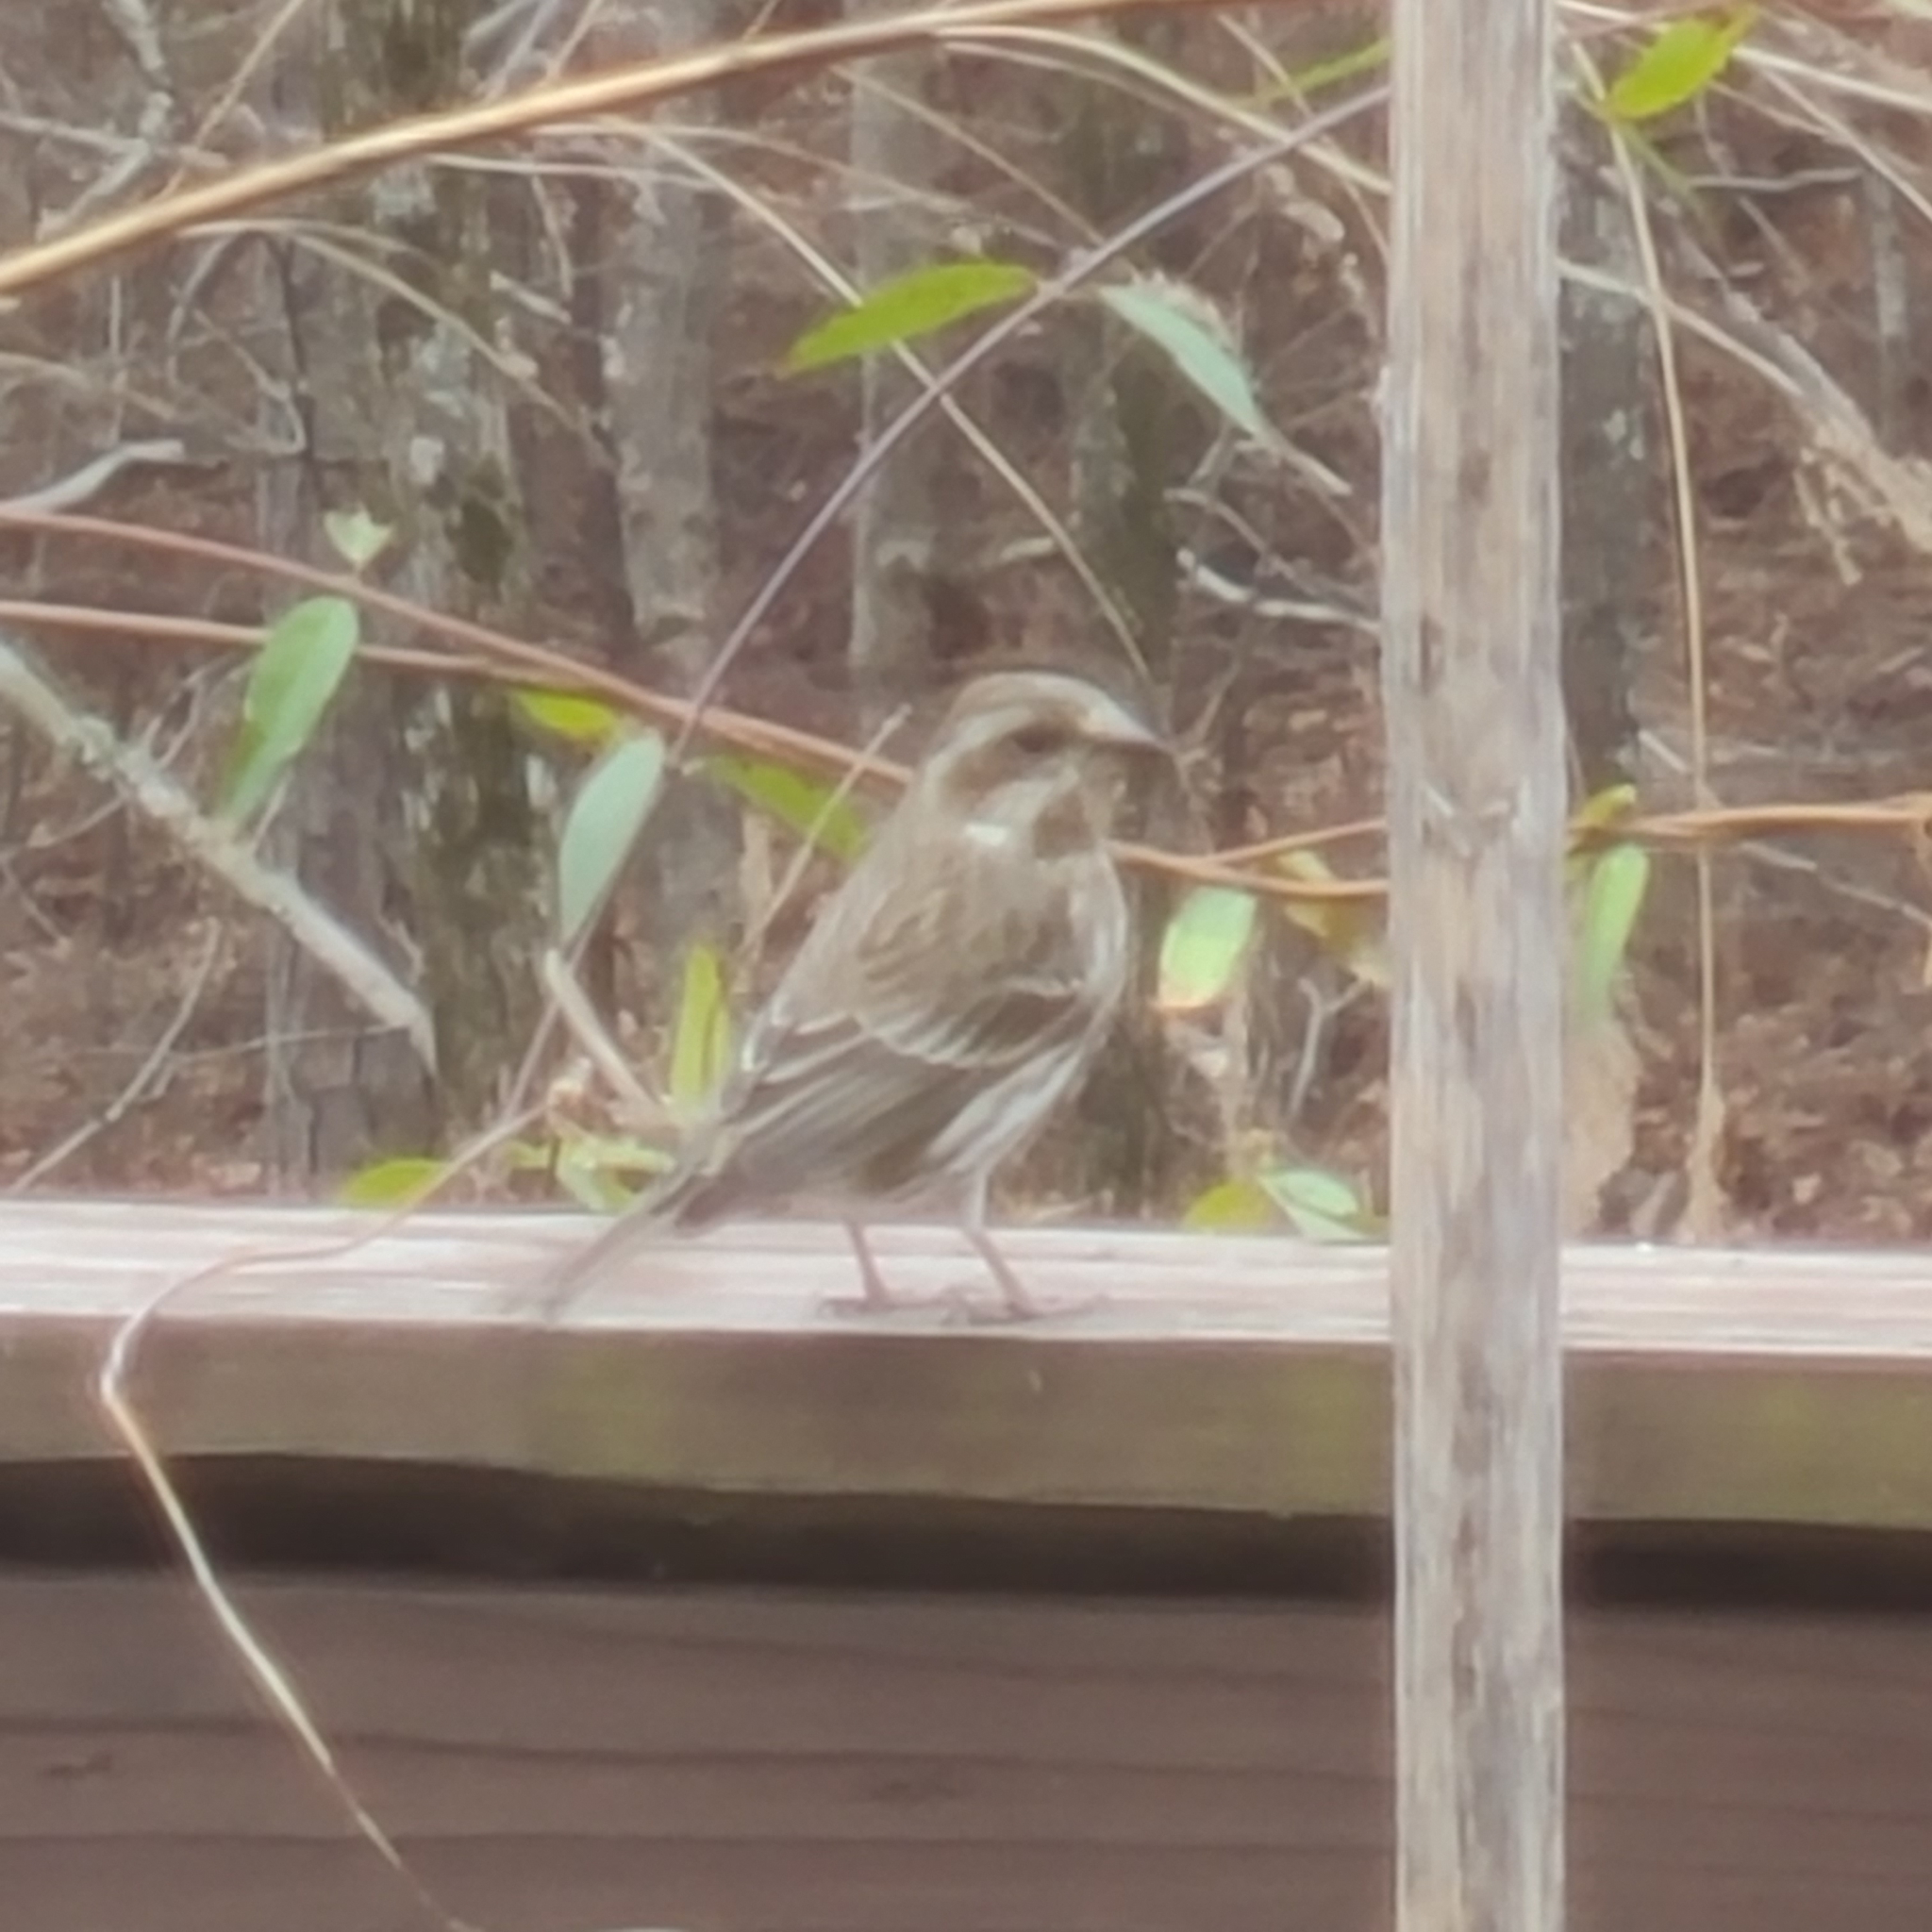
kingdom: Animalia
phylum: Chordata
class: Aves
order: Passeriformes
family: Fringillidae
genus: Haemorhous
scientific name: Haemorhous purpureus
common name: Purple finch
